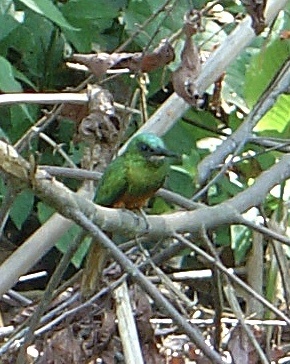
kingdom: Animalia
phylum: Chordata
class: Aves
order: Piciformes
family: Galbulidae
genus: Galbula
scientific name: Galbula cyanescens
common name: Bluish-fronted jacamar
